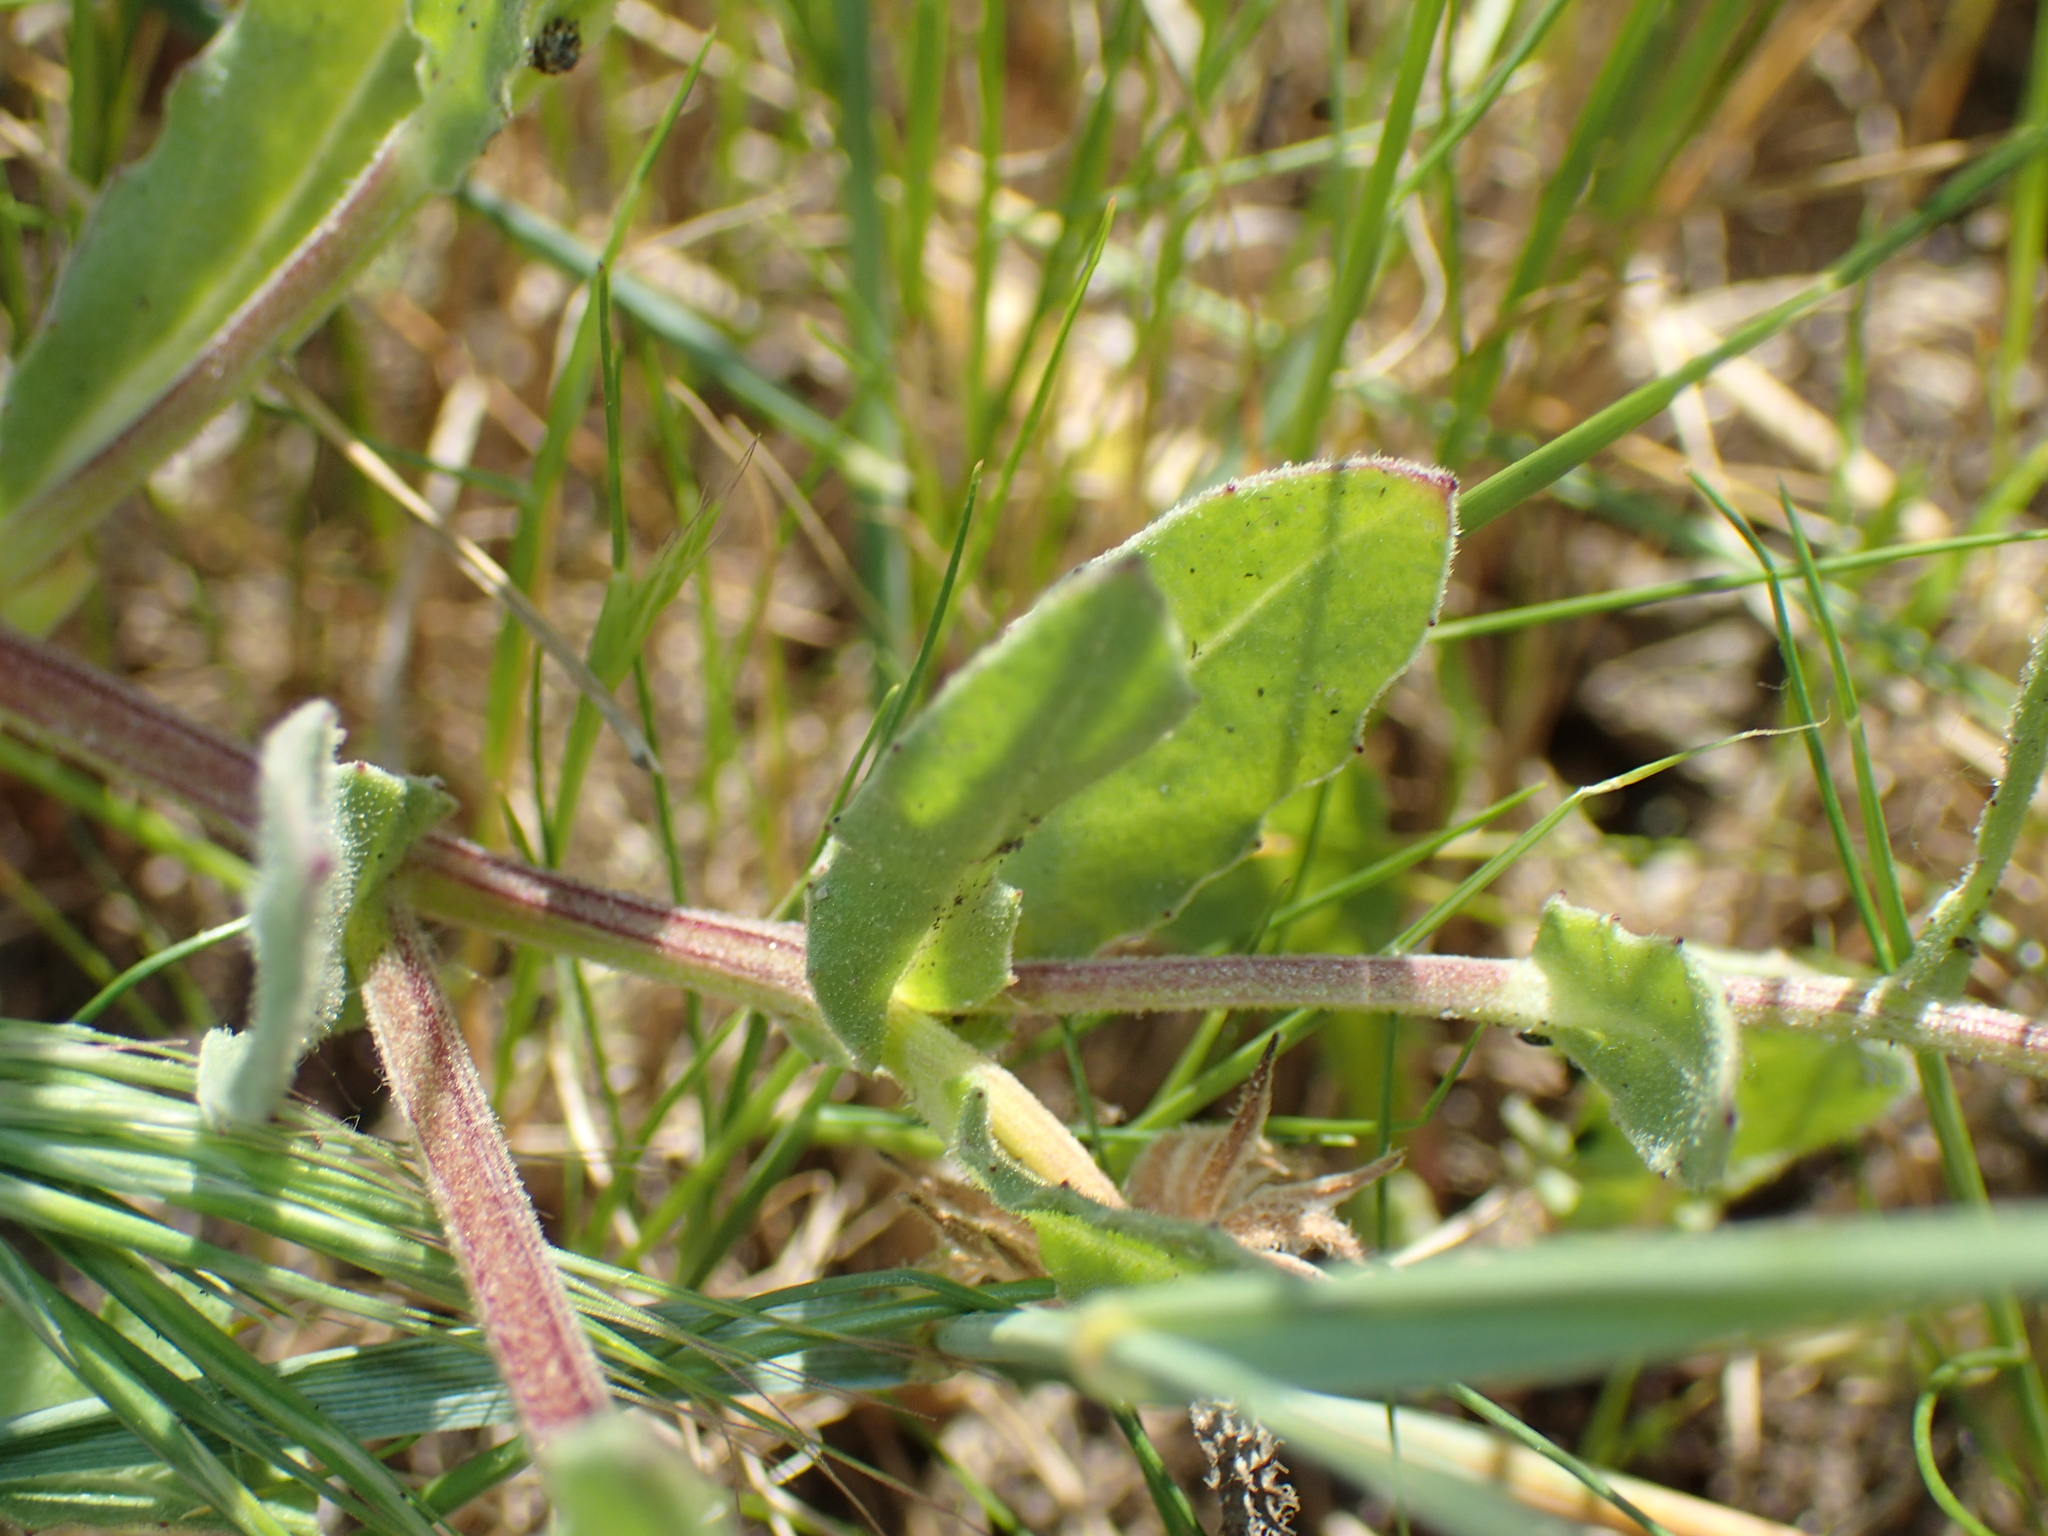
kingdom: Plantae
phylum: Tracheophyta
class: Magnoliopsida
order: Asterales
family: Asteraceae
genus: Calendula
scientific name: Calendula arvensis
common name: Field marigold
